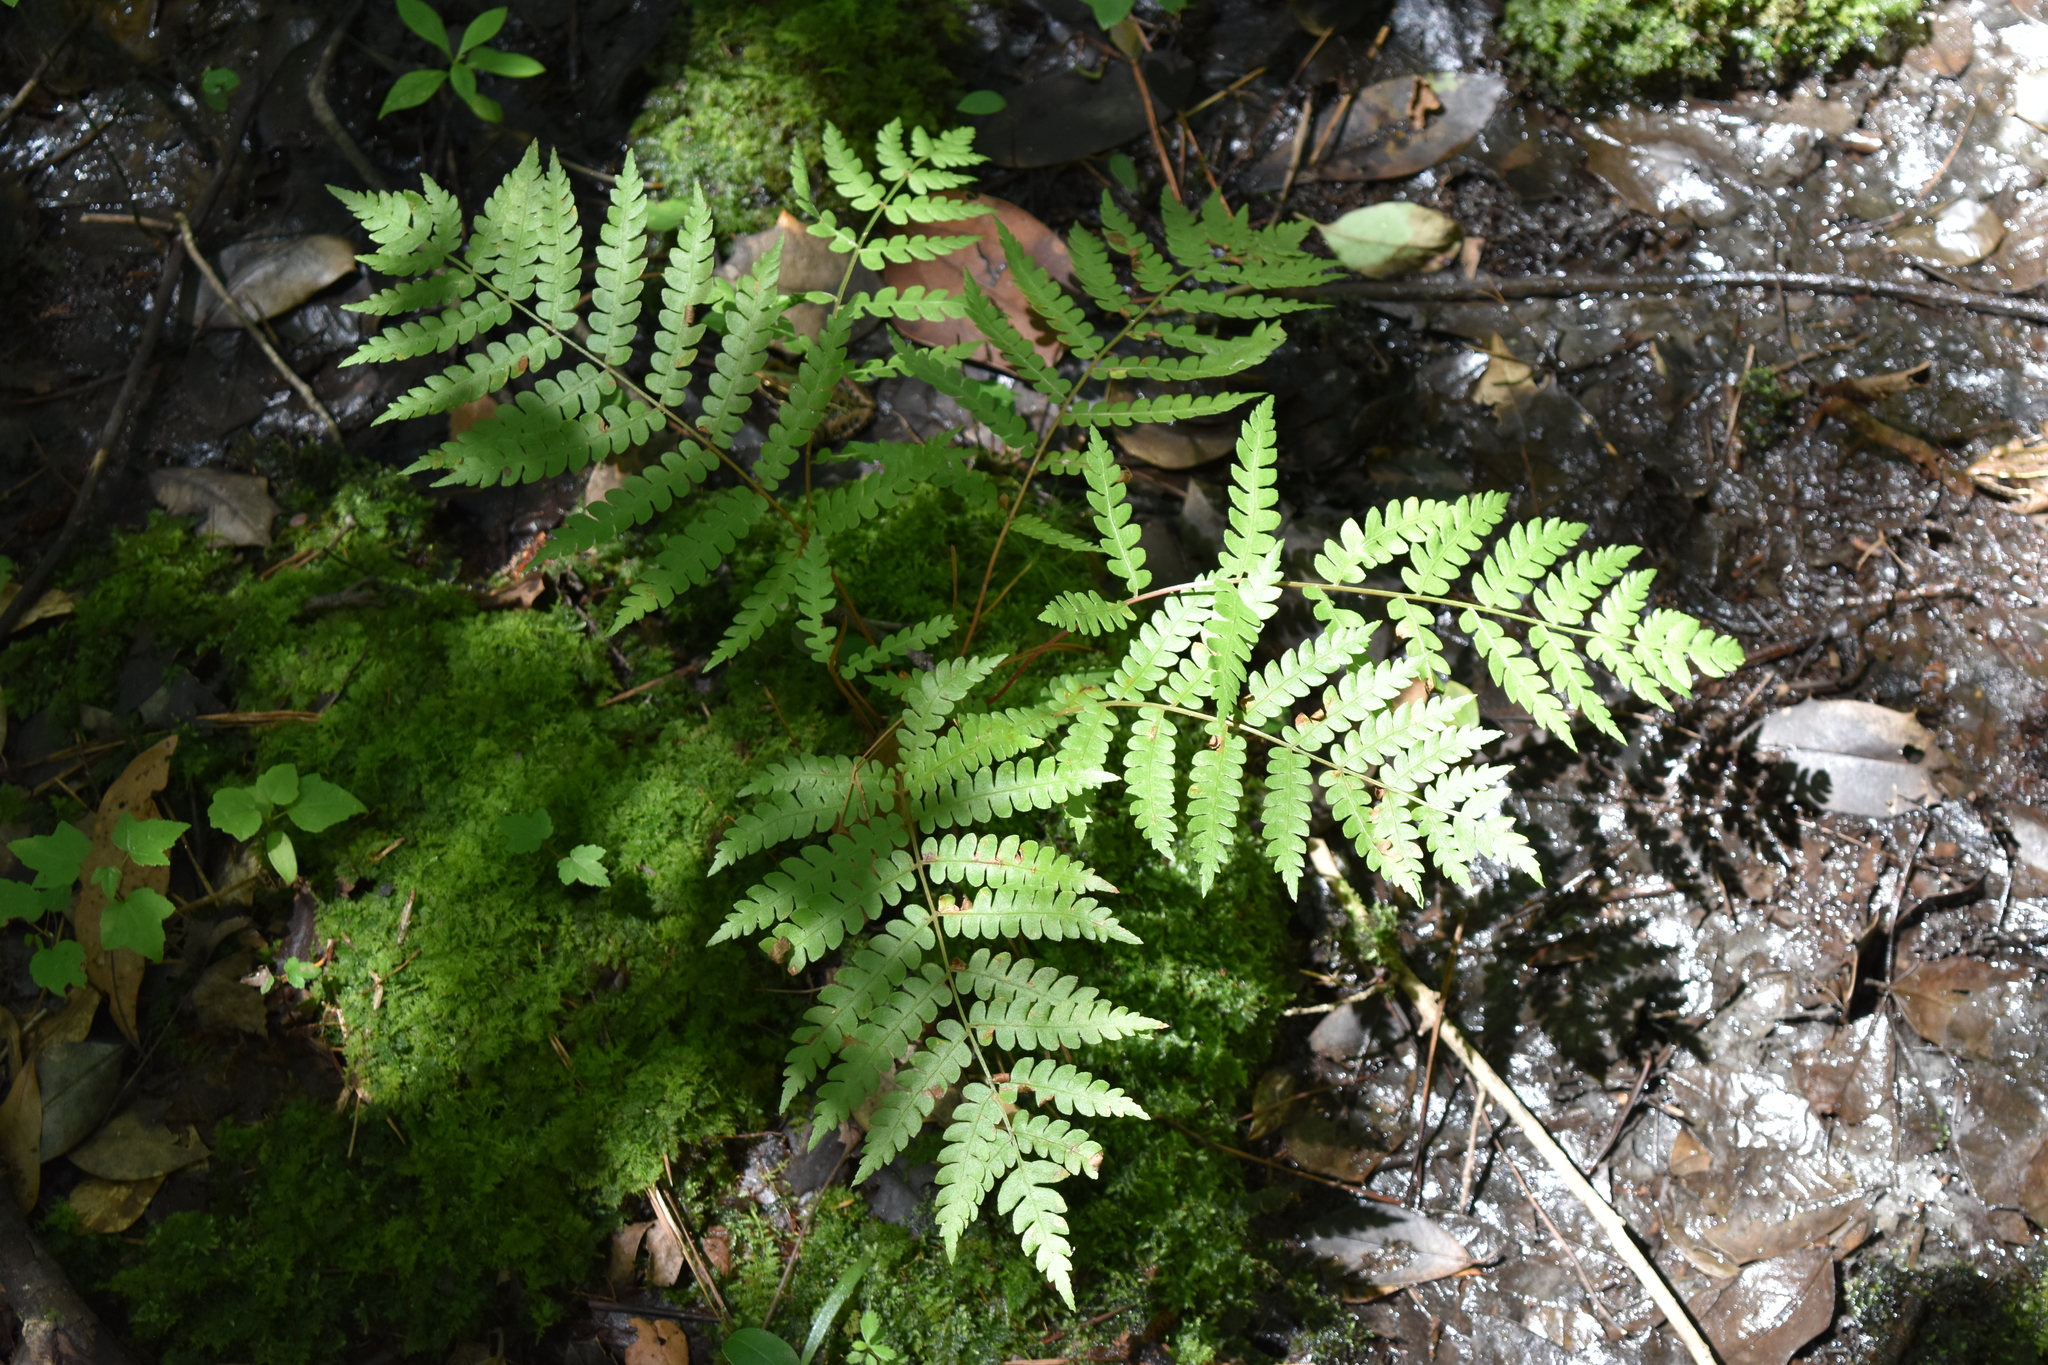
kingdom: Plantae
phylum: Tracheophyta
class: Polypodiopsida
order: Osmundales
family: Osmundaceae
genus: Osmundastrum
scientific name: Osmundastrum cinnamomeum
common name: Cinnamon fern
